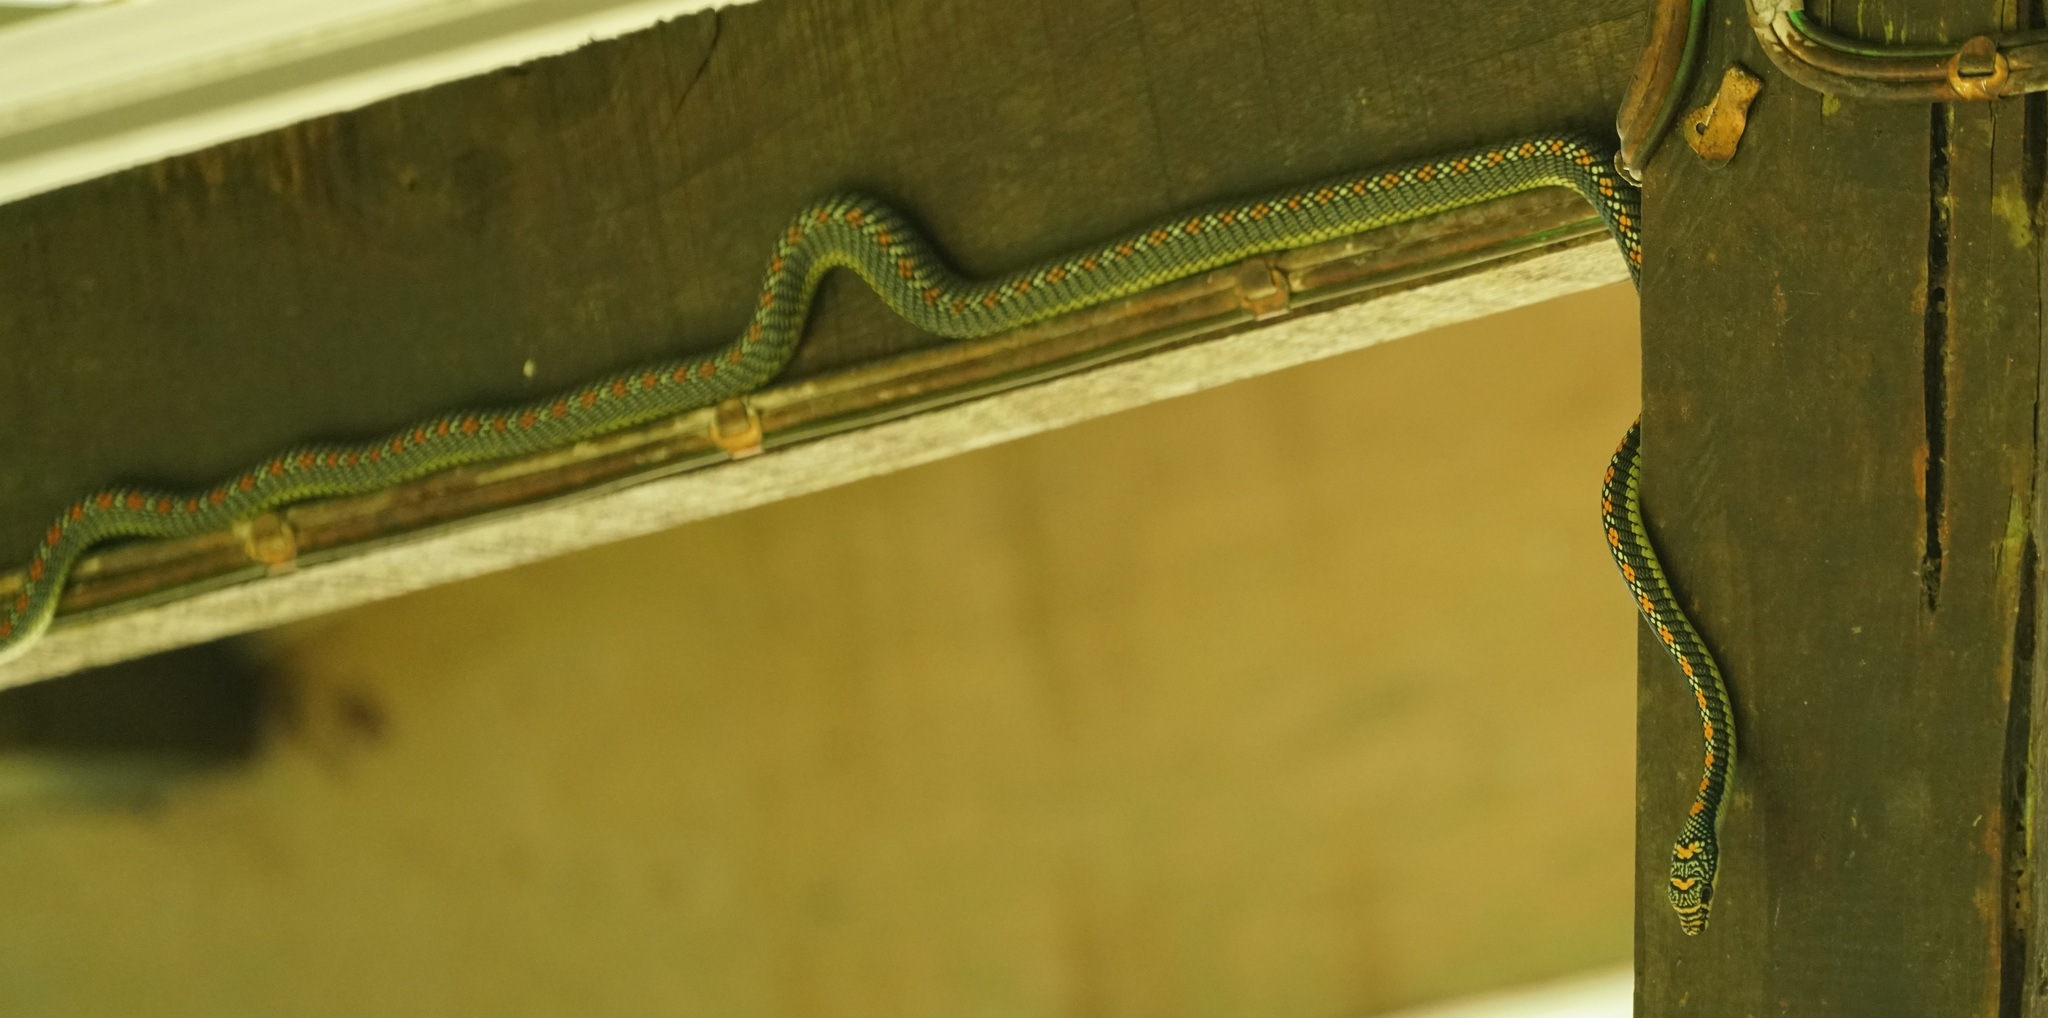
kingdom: Animalia
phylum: Chordata
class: Squamata
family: Colubridae
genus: Chrysopelea
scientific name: Chrysopelea paradisi
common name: Paradise tree snake
